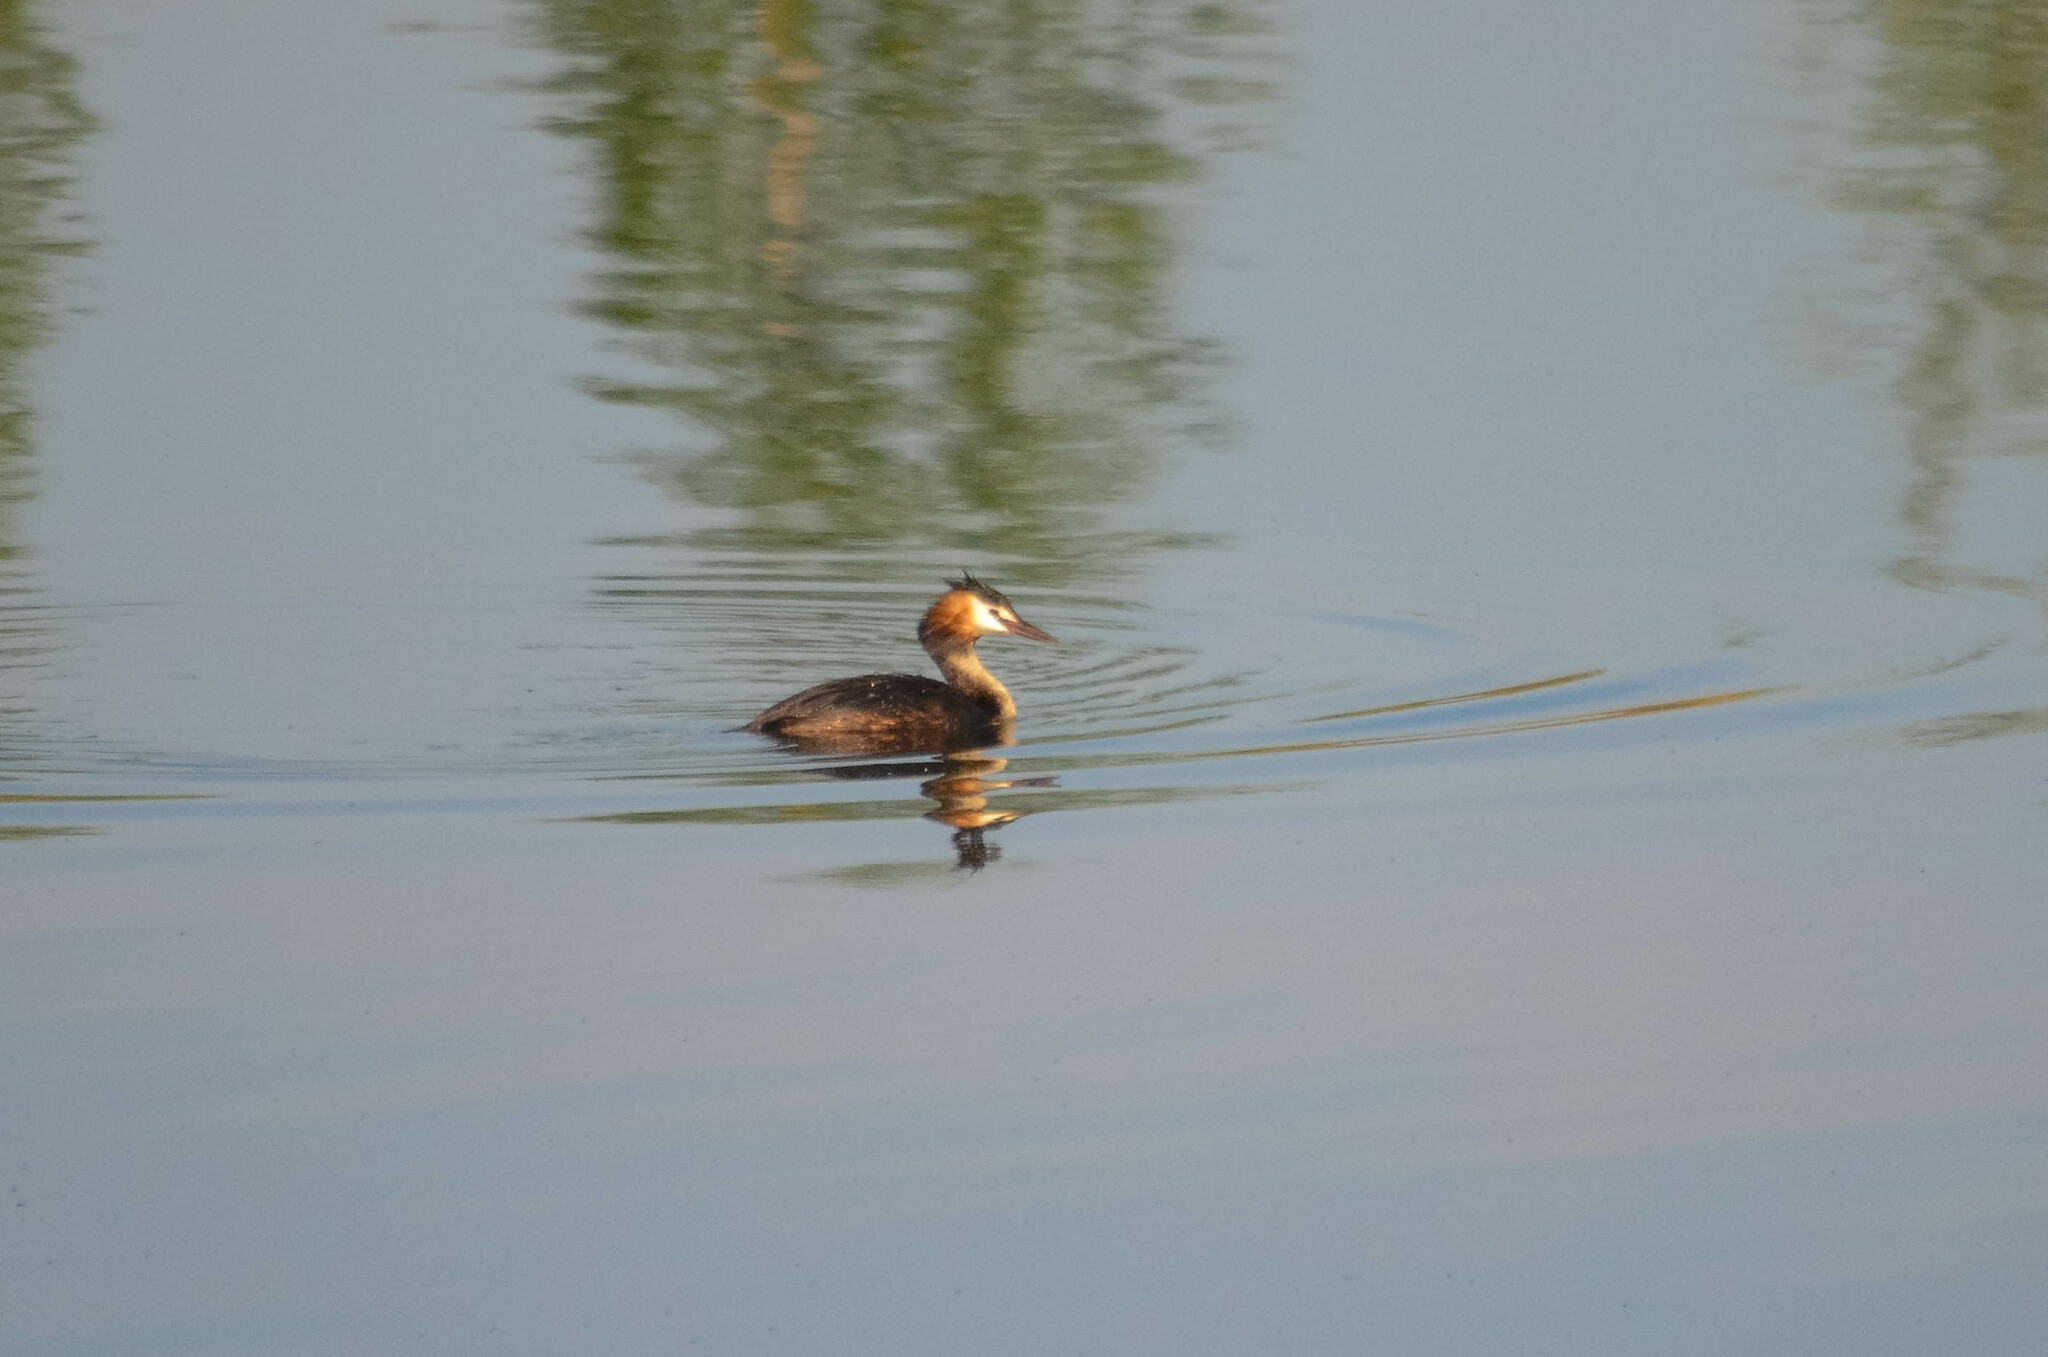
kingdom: Animalia
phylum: Chordata
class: Aves
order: Podicipediformes
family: Podicipedidae
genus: Podiceps
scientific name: Podiceps cristatus
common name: Great crested grebe
